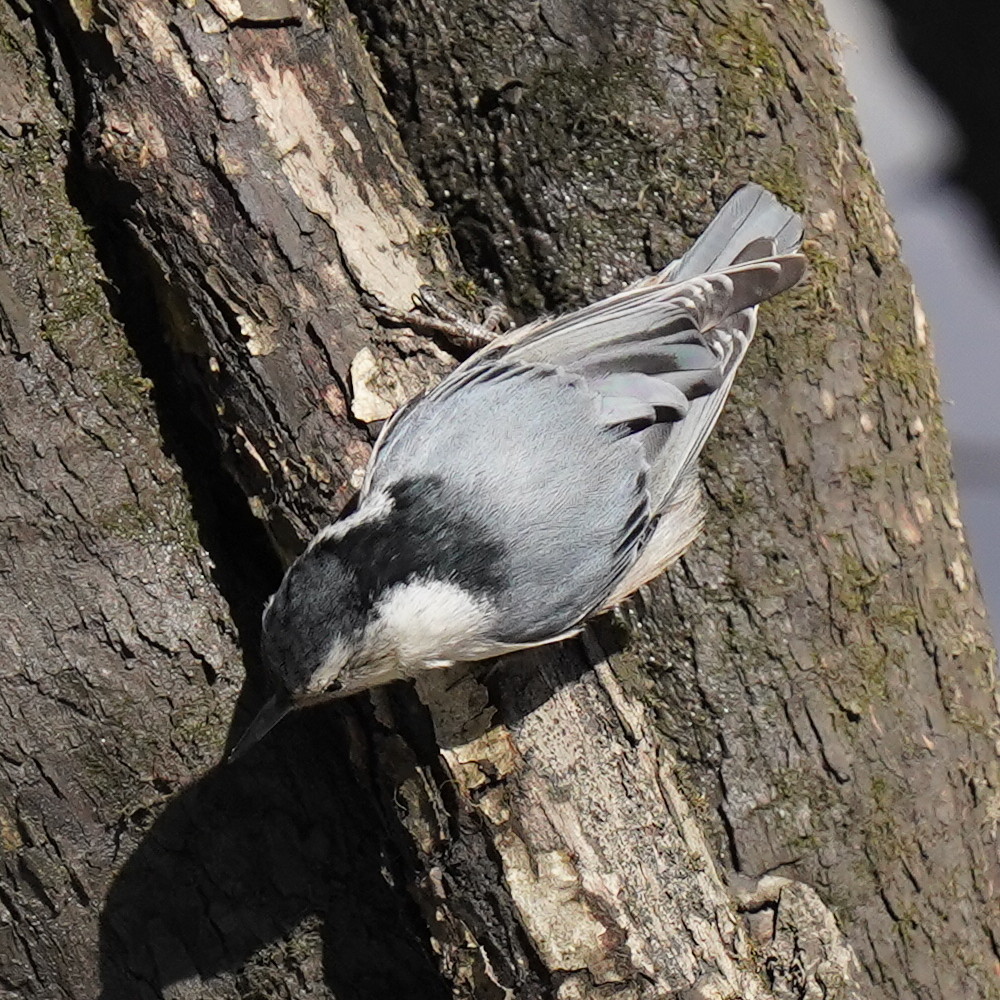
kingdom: Animalia
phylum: Chordata
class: Aves
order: Passeriformes
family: Sittidae
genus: Sitta
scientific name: Sitta carolinensis
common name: White-breasted nuthatch
